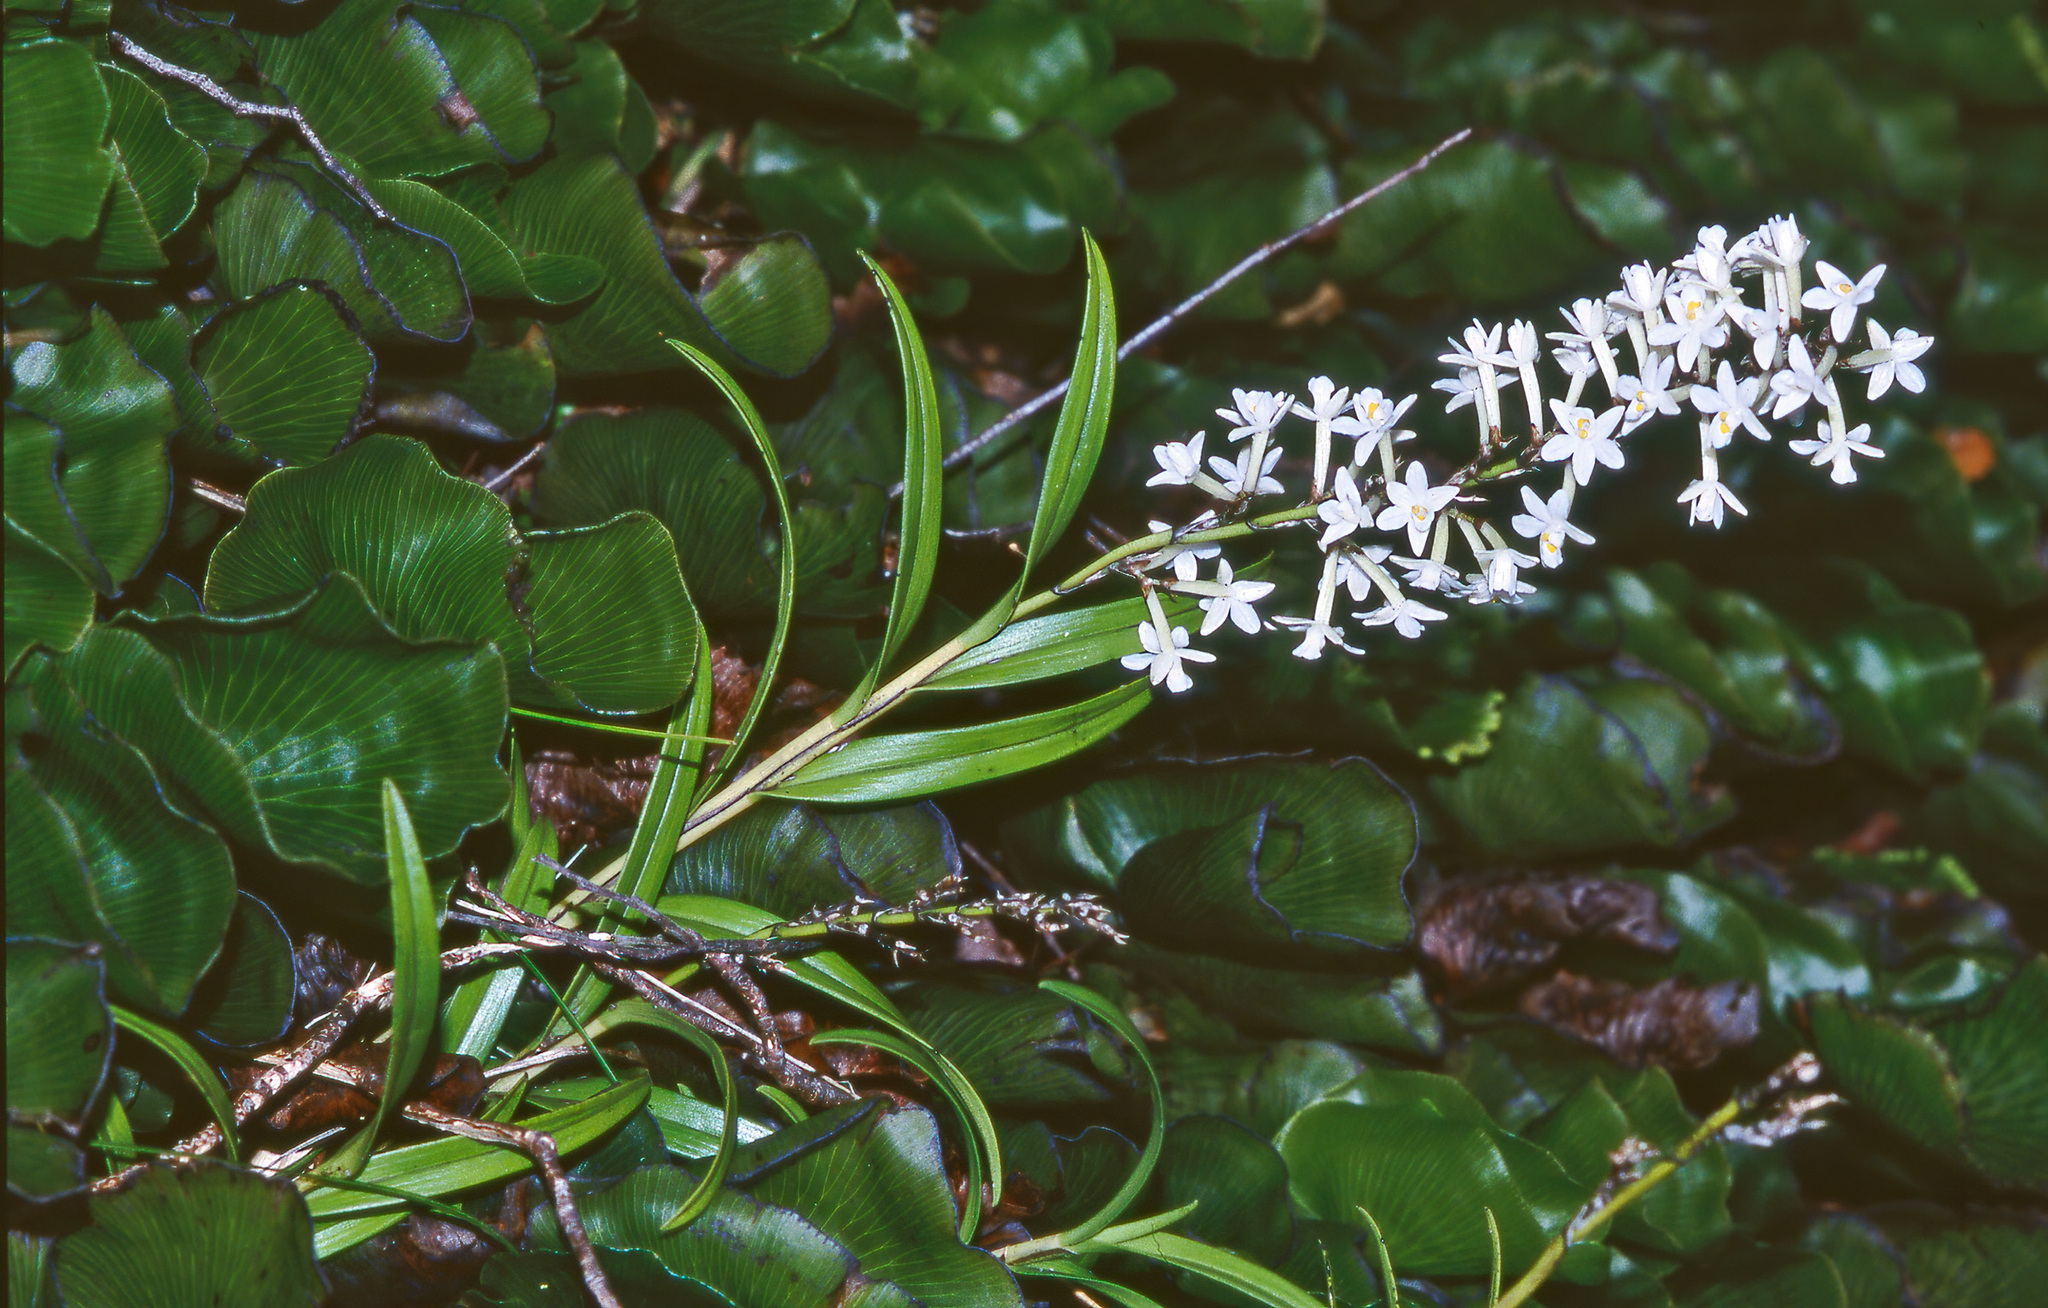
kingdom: Plantae
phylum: Tracheophyta
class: Liliopsida
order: Asparagales
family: Orchidaceae
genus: Earina
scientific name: Earina autumnalis
